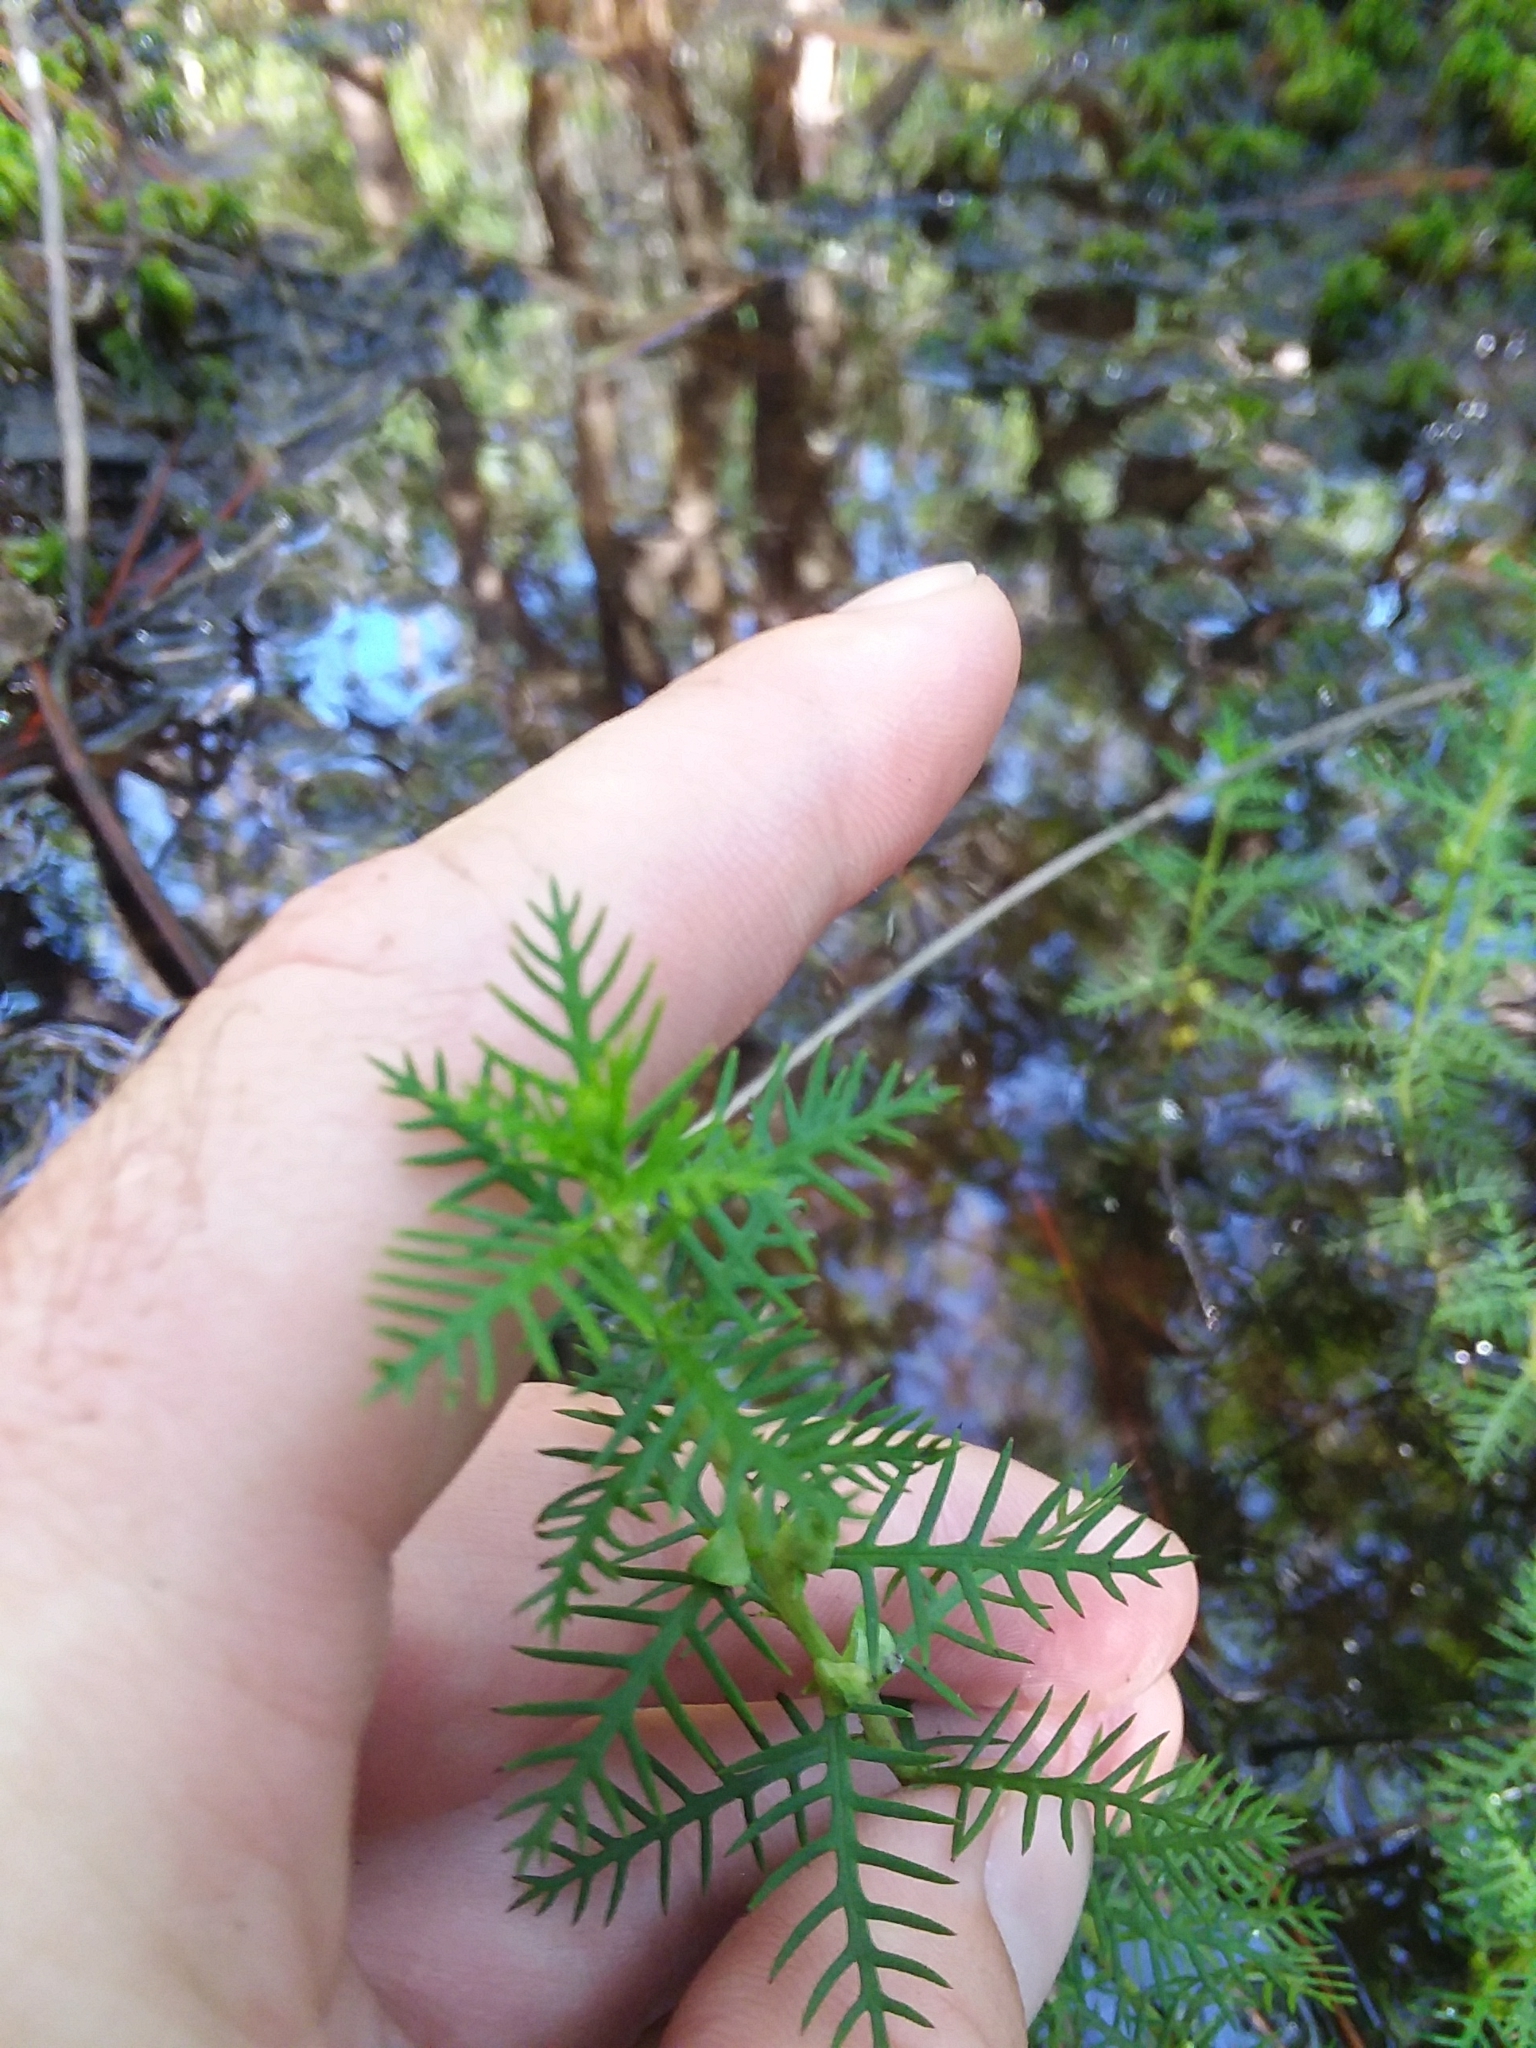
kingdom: Plantae
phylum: Tracheophyta
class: Magnoliopsida
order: Saxifragales
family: Haloragaceae
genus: Proserpinaca
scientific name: Proserpinaca pectinata
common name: Comb-leaved mermaidweed
